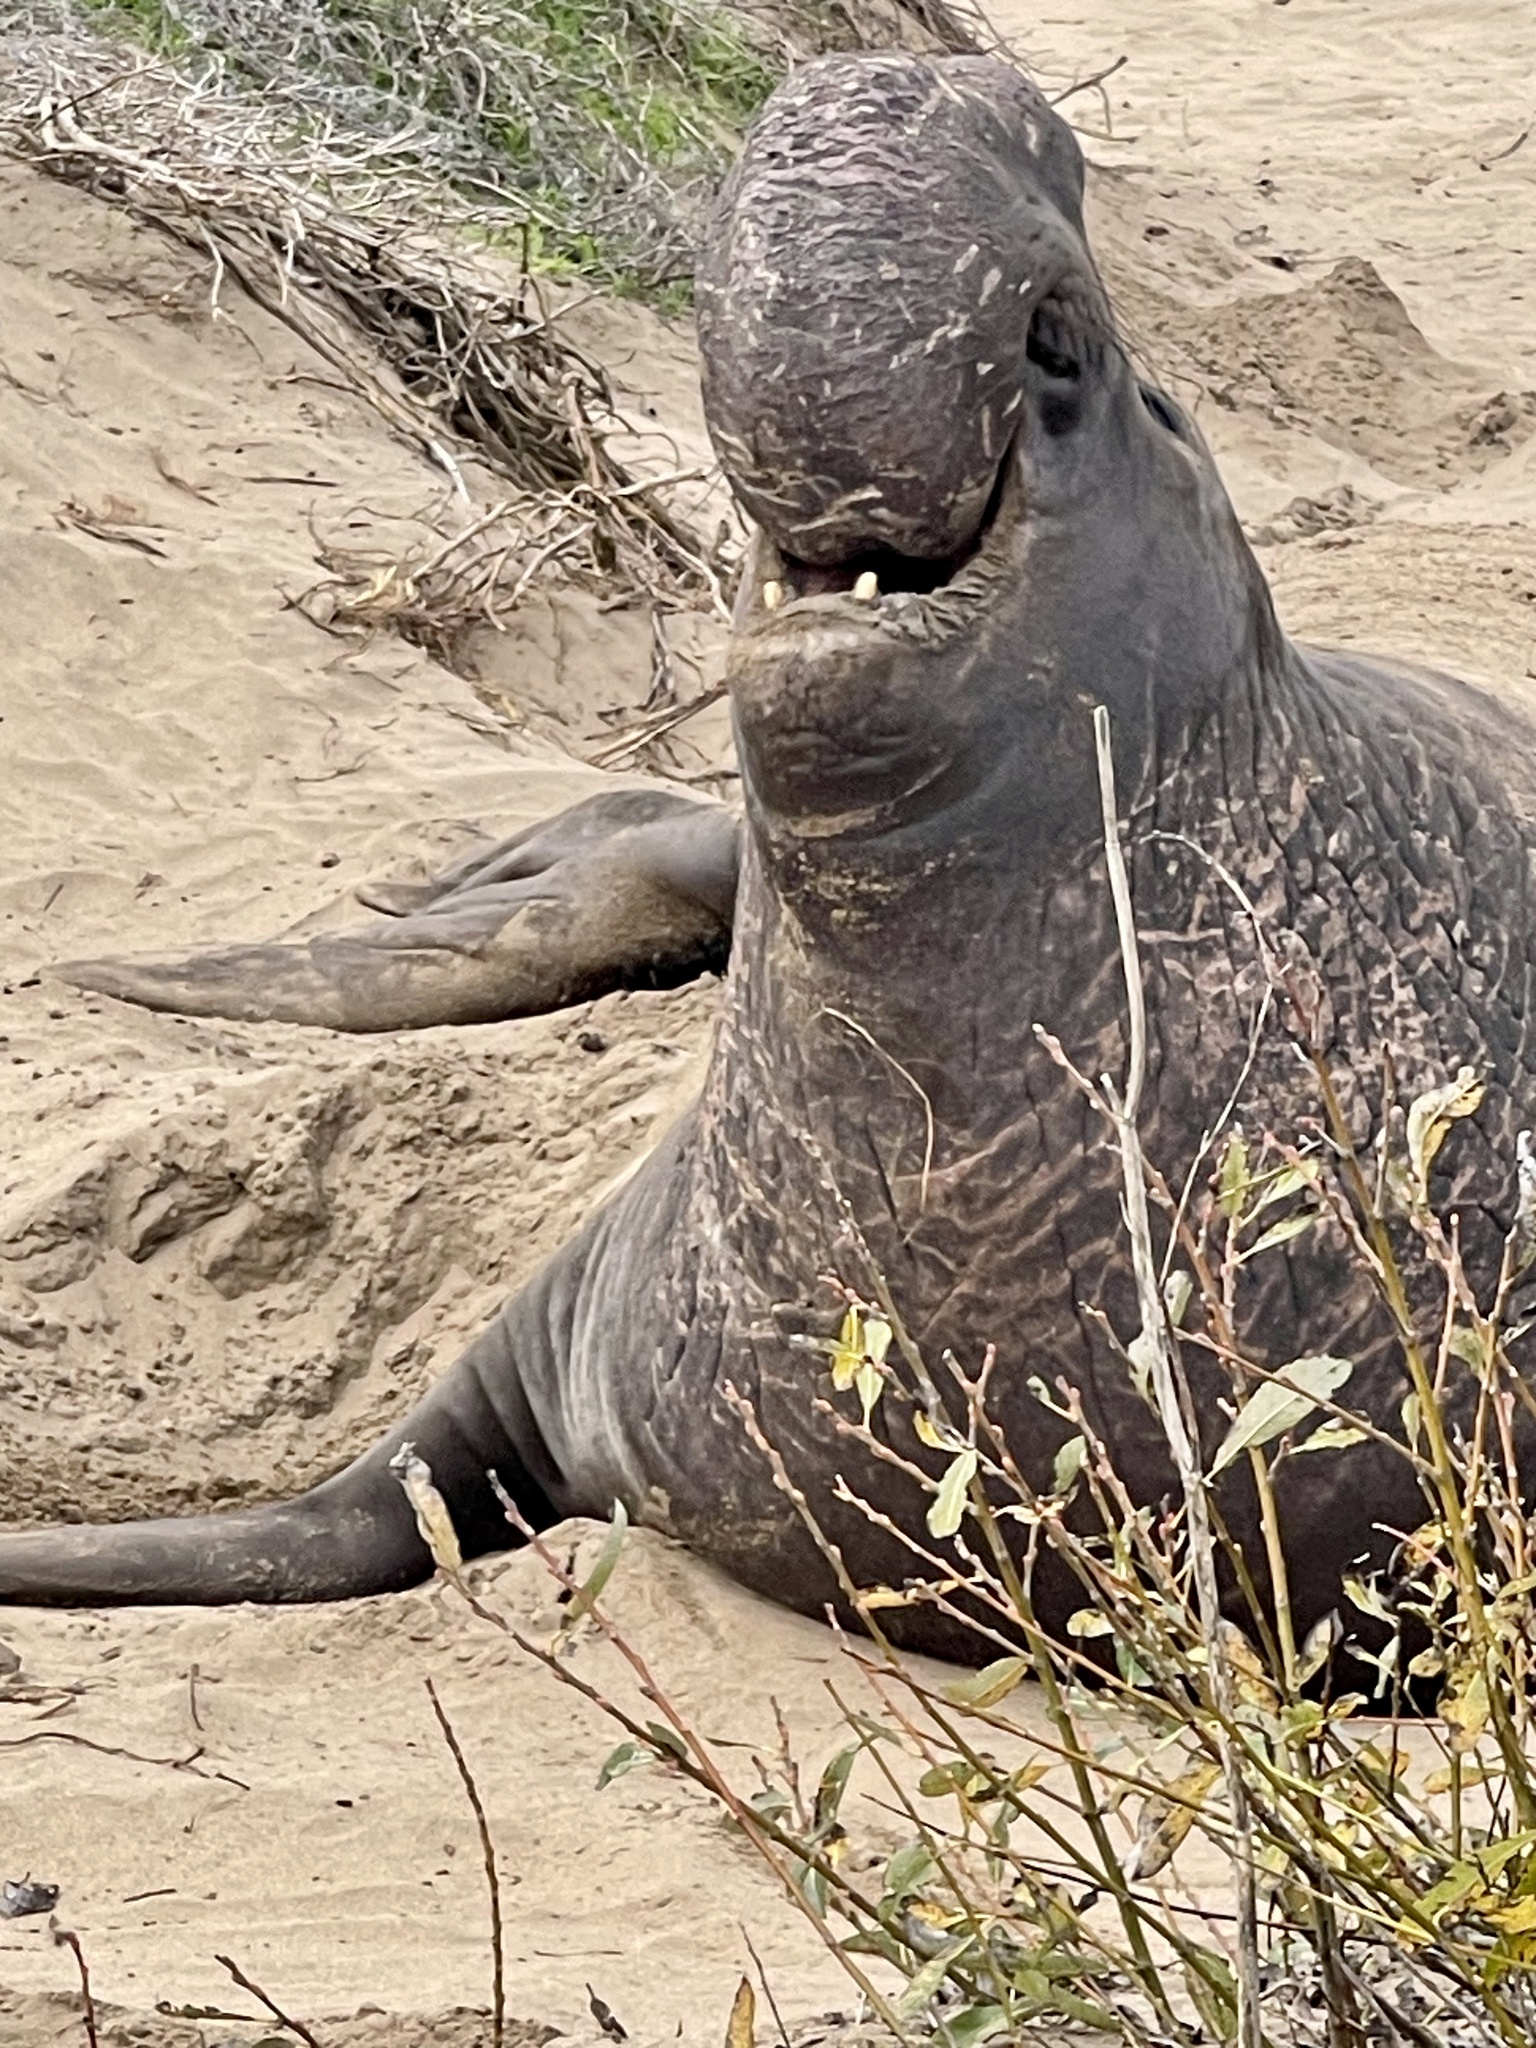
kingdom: Animalia
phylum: Chordata
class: Mammalia
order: Carnivora
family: Phocidae
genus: Mirounga
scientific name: Mirounga angustirostris
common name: Northern elephant seal
